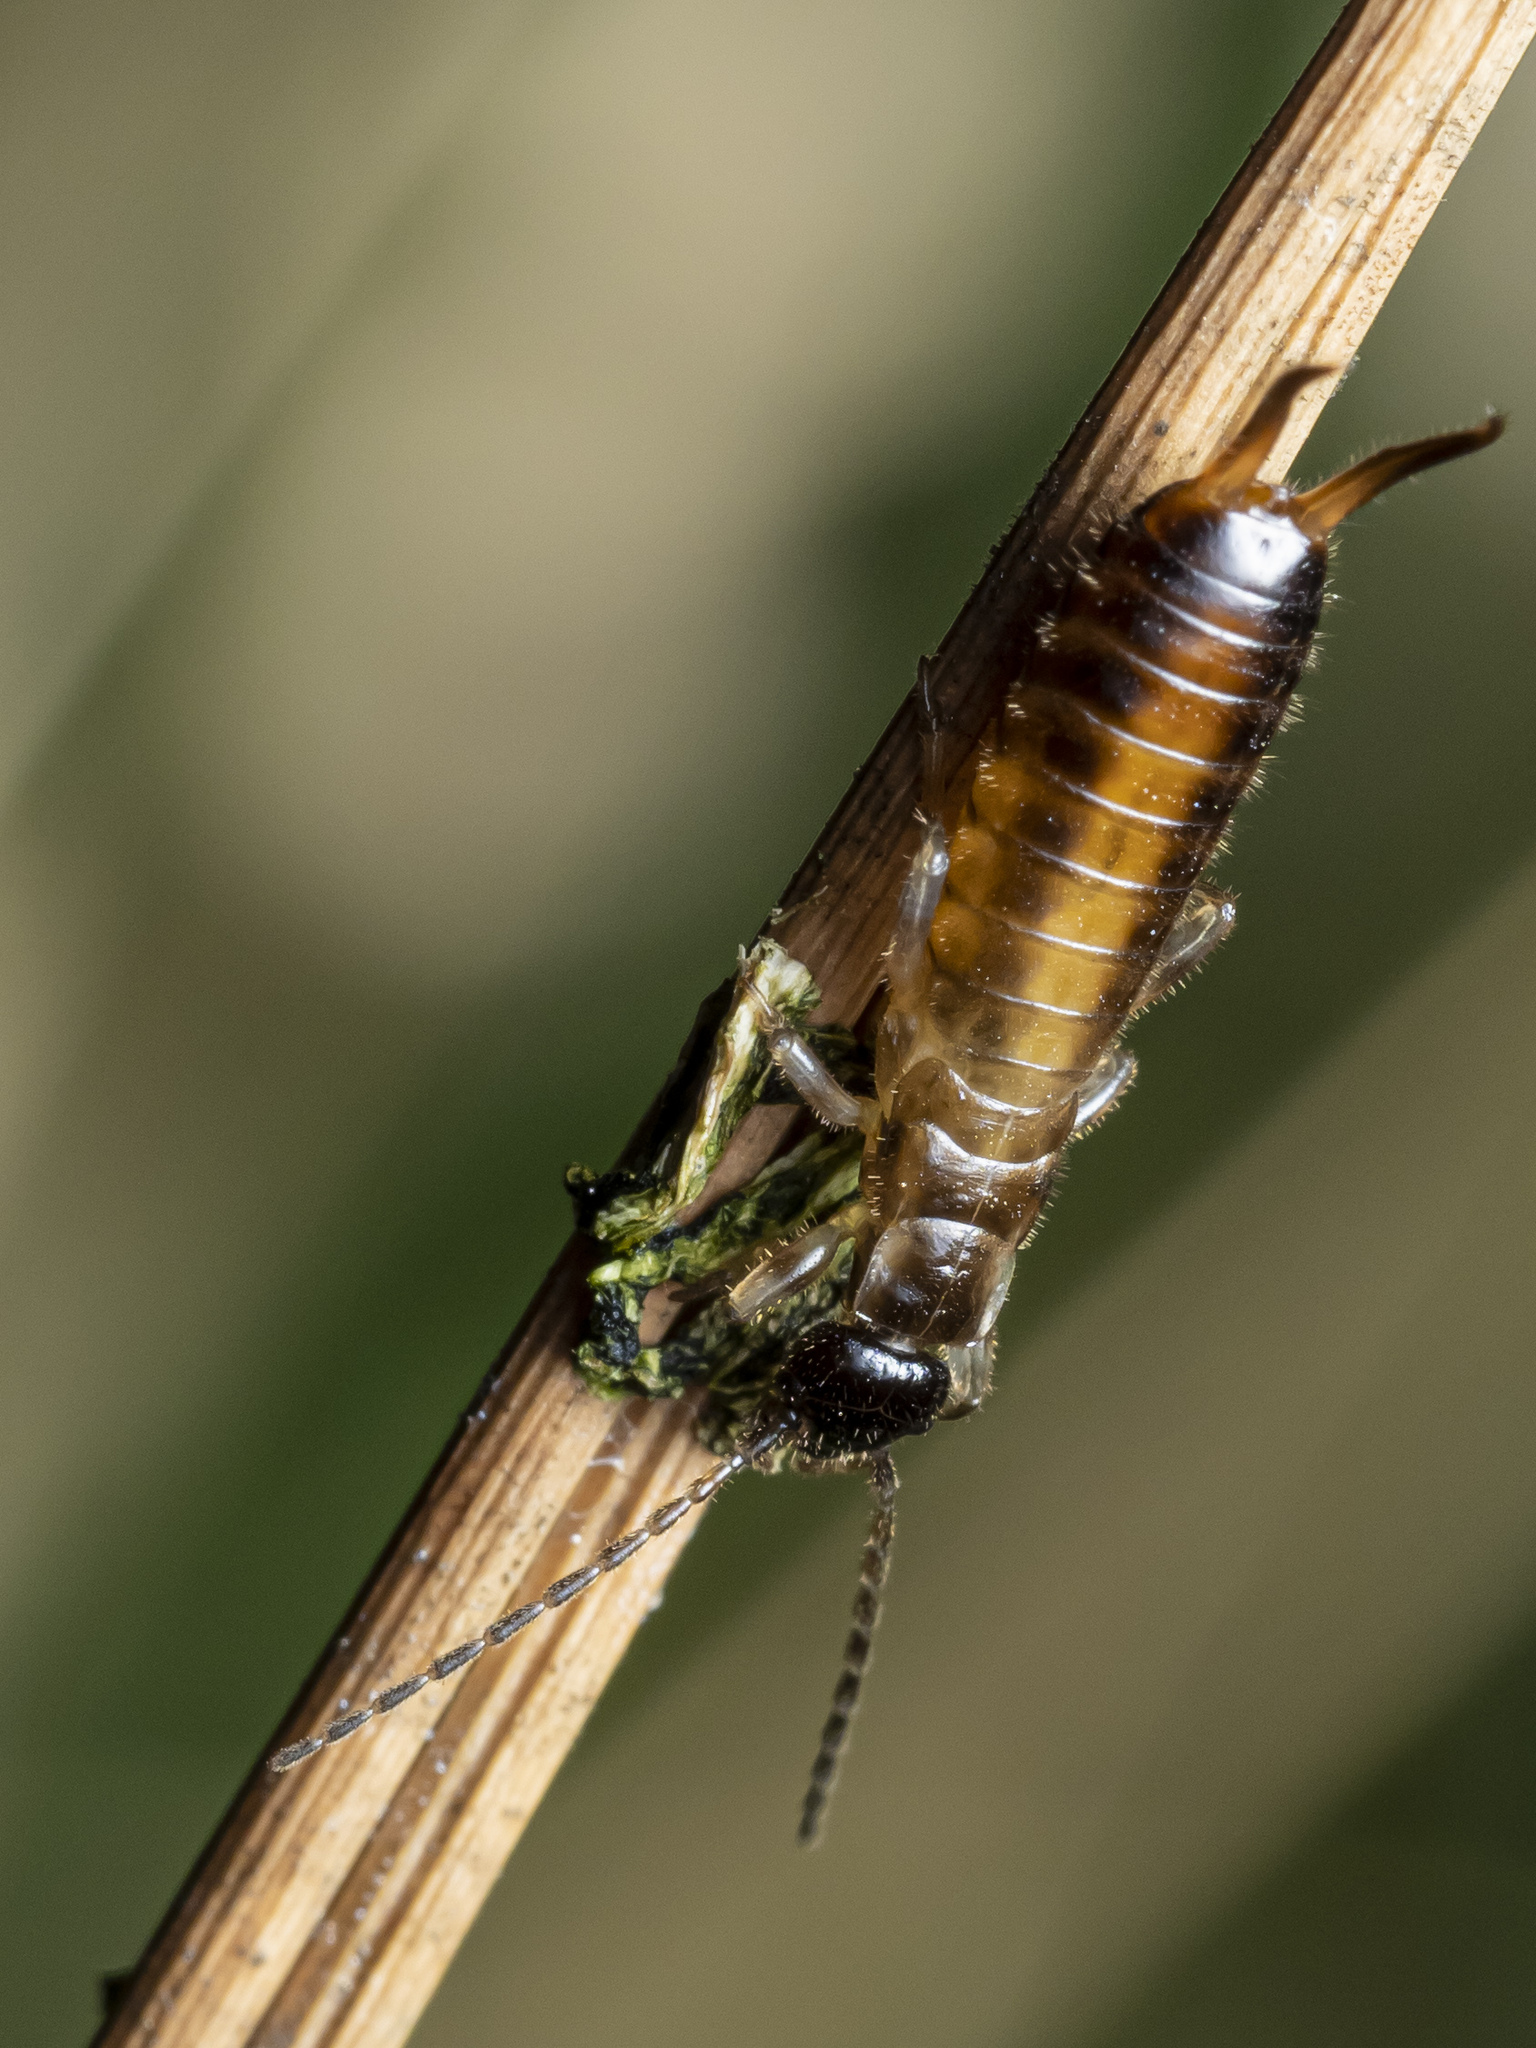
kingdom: Animalia
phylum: Arthropoda
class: Insecta
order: Dermaptera
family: Forficulidae
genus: Apterygida
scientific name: Apterygida albipennis
